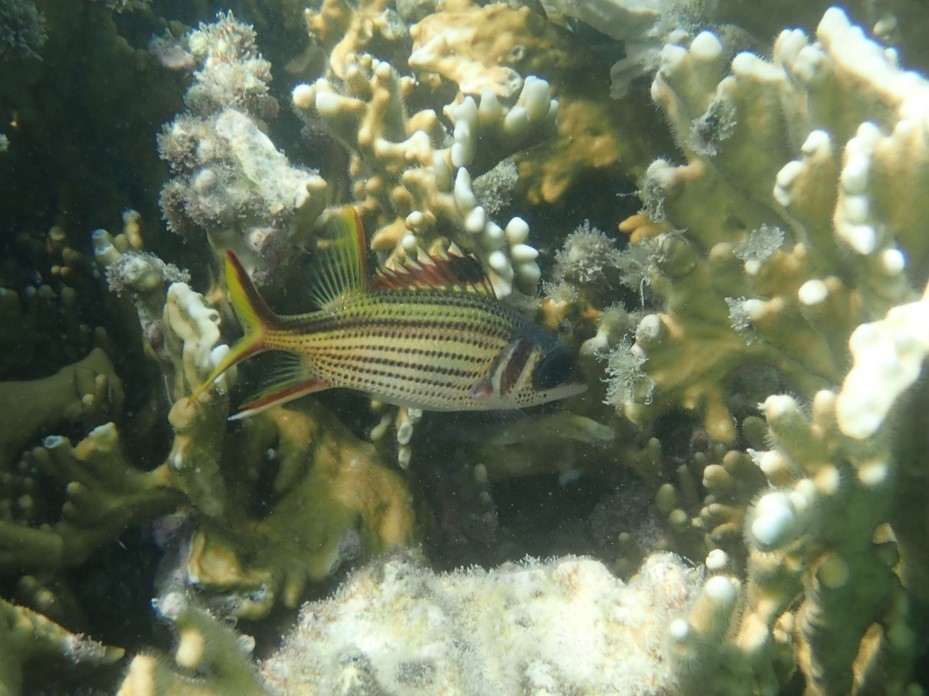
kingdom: Animalia
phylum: Chordata
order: Beryciformes
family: Holocentridae
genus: Neoniphon
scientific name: Neoniphon sammara
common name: Sammara squirrelfish
